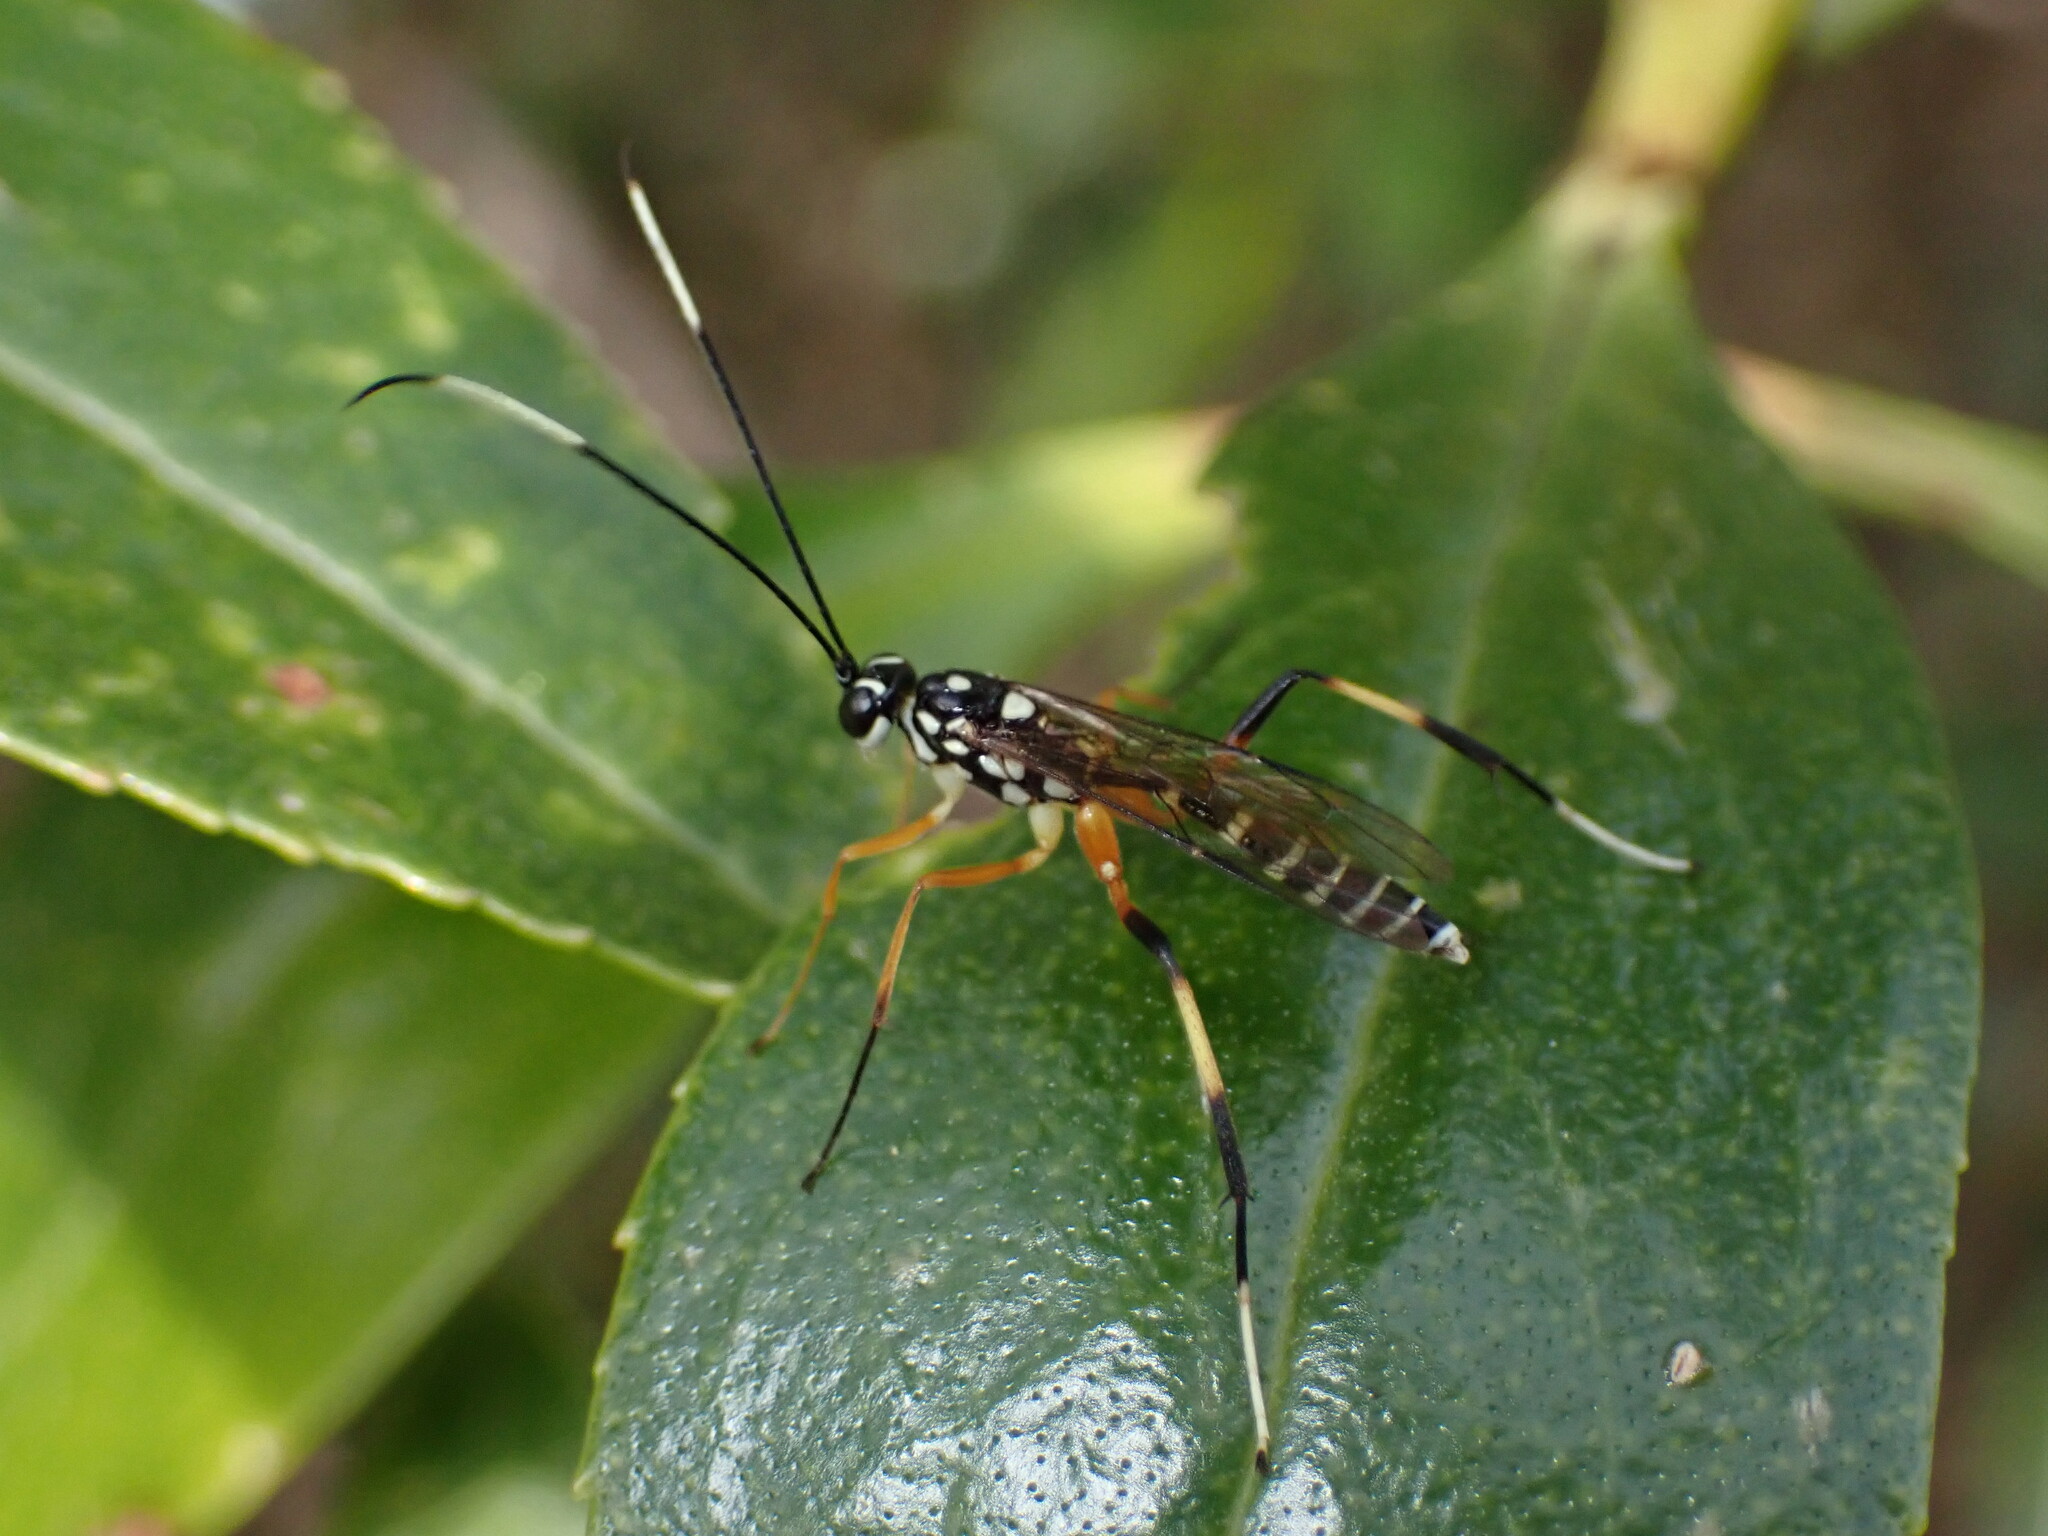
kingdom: Animalia
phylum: Arthropoda
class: Insecta
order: Hymenoptera
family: Ichneumonidae
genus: Xanthocryptus
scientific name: Xanthocryptus novozealandicus
